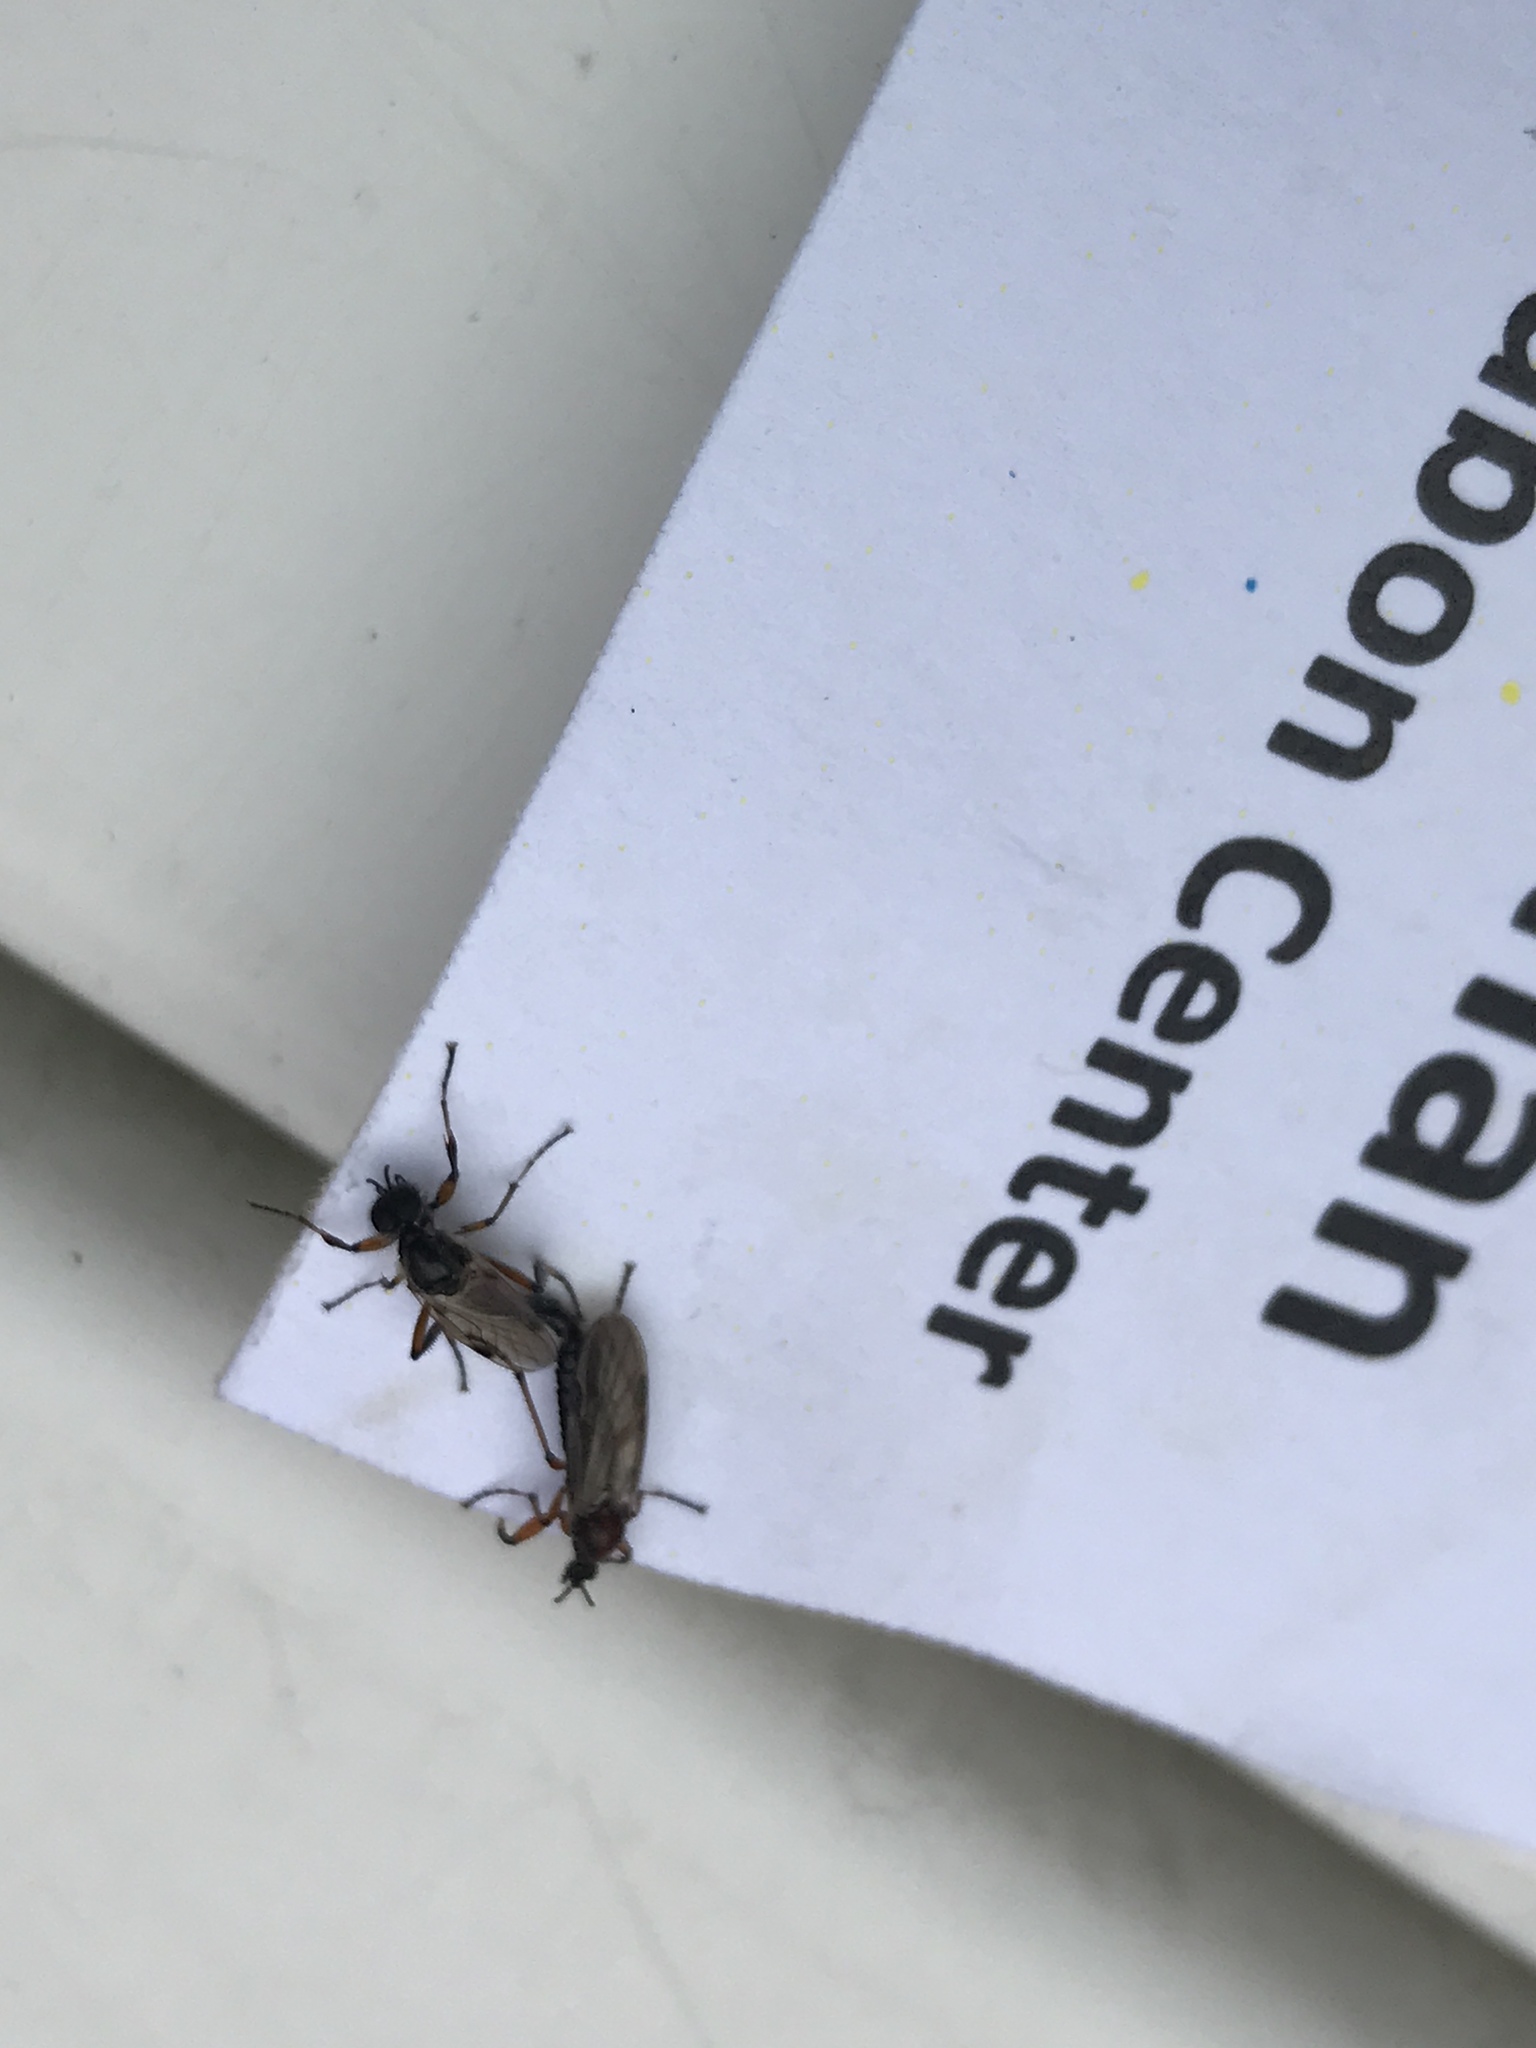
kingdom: Animalia
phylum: Arthropoda
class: Insecta
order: Diptera
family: Bibionidae
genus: Bibio
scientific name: Bibio articulatus
